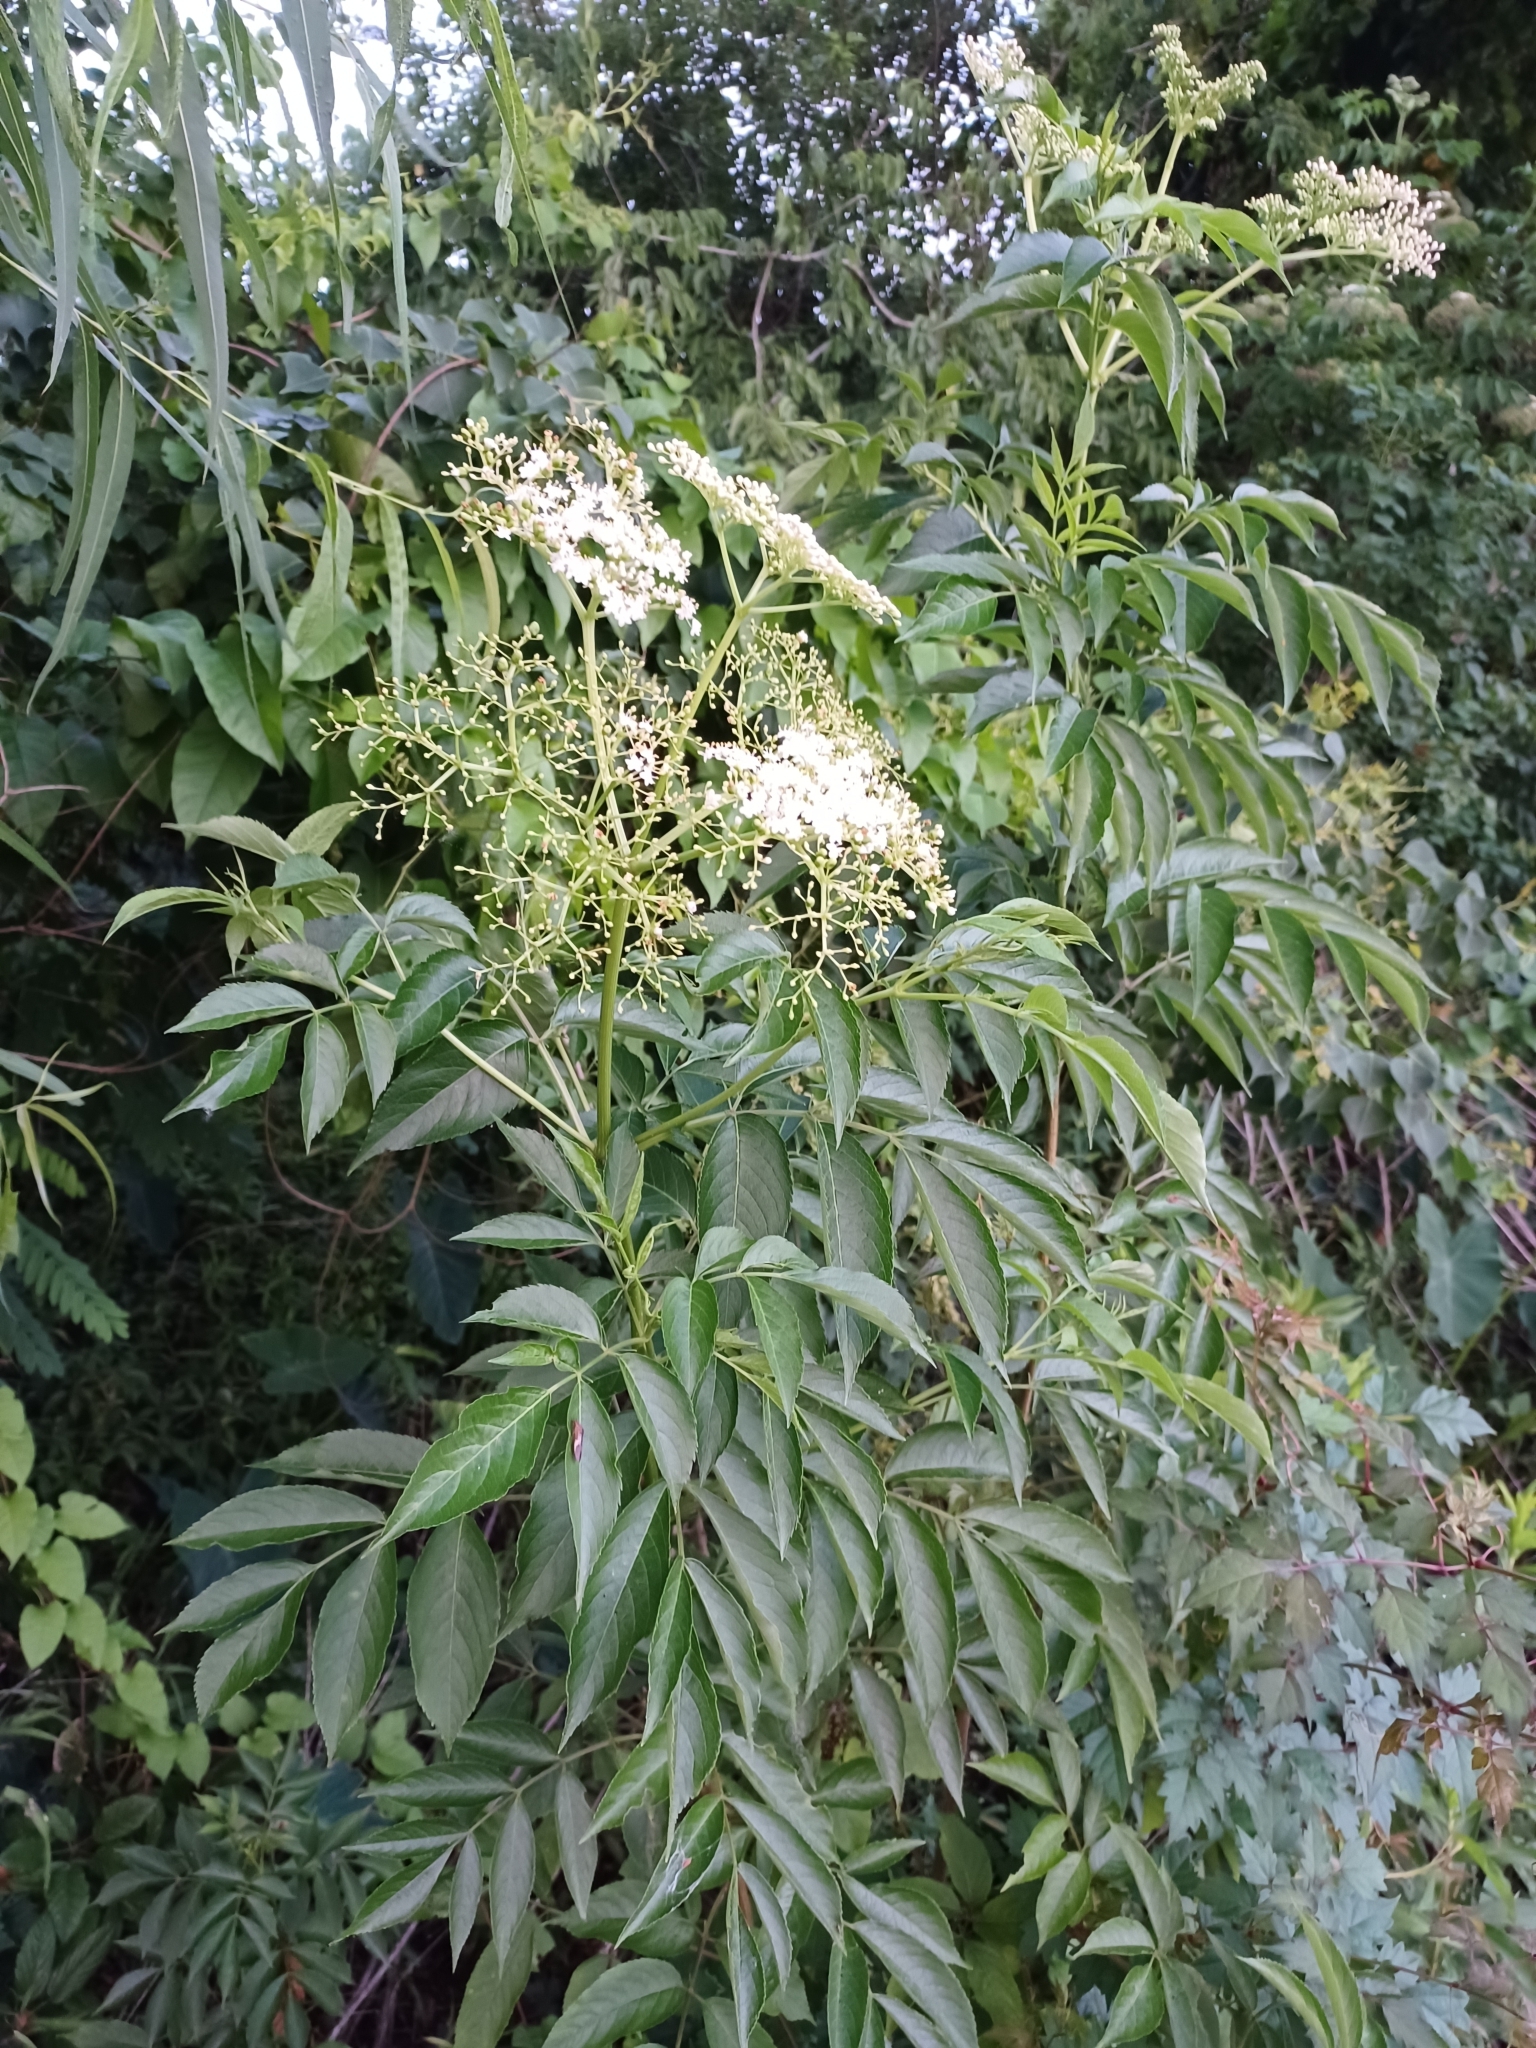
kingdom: Plantae
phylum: Tracheophyta
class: Magnoliopsida
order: Dipsacales
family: Viburnaceae
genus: Sambucus
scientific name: Sambucus canadensis
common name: American elder
